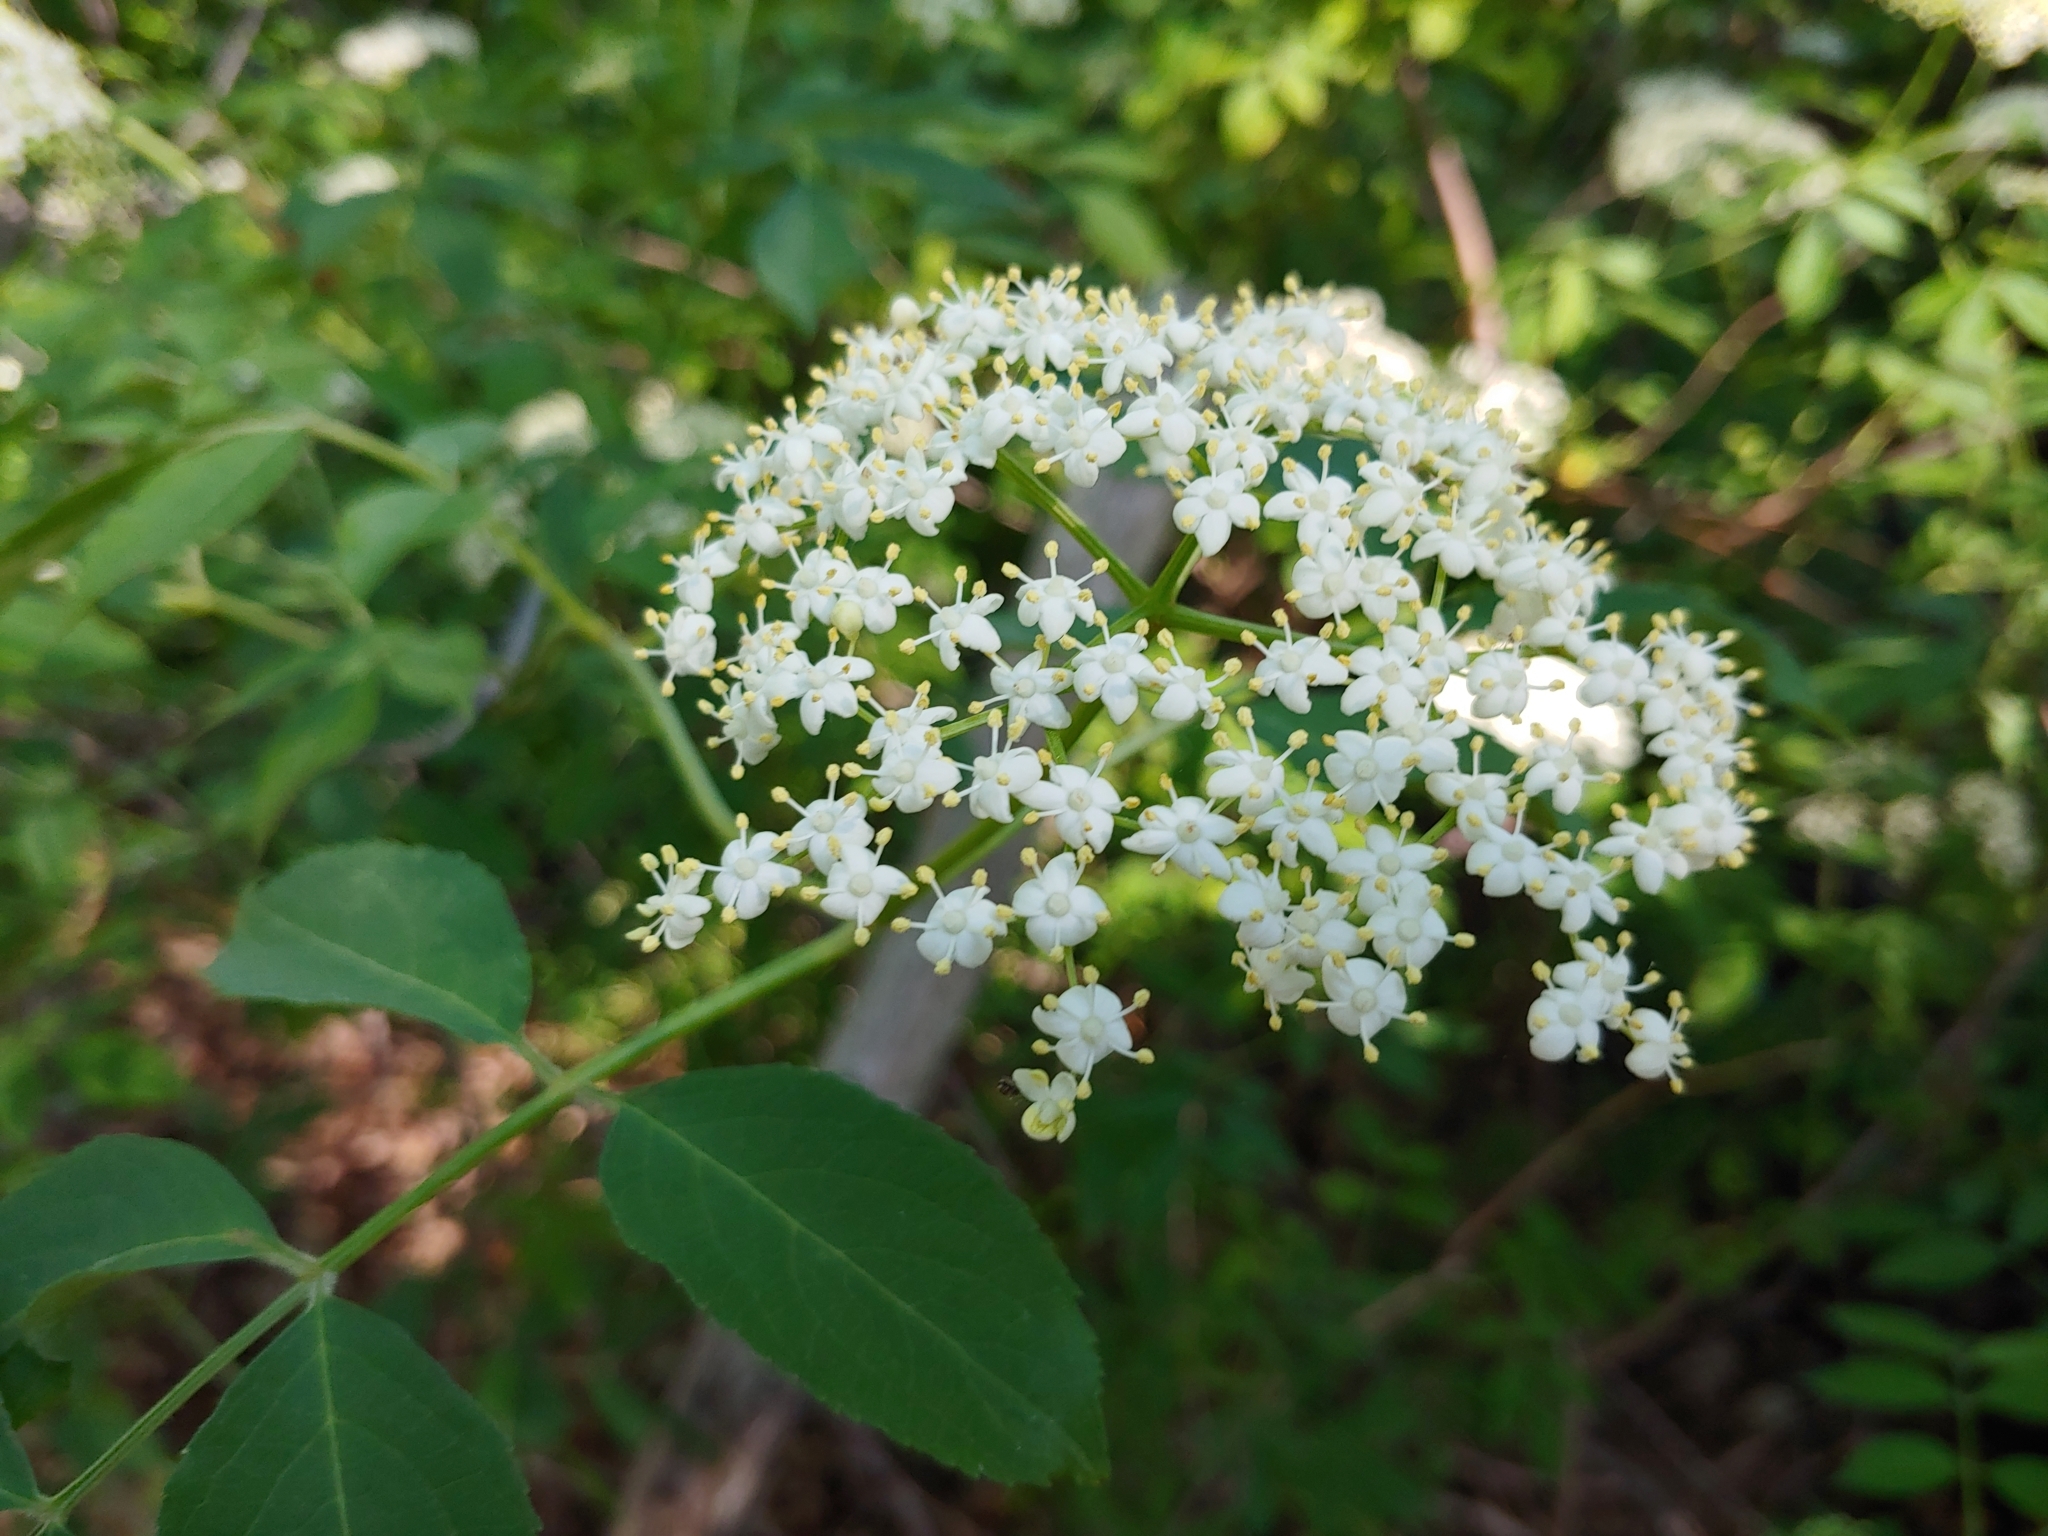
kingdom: Plantae
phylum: Tracheophyta
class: Magnoliopsida
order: Dipsacales
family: Viburnaceae
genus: Sambucus
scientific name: Sambucus canadensis
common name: American elder
